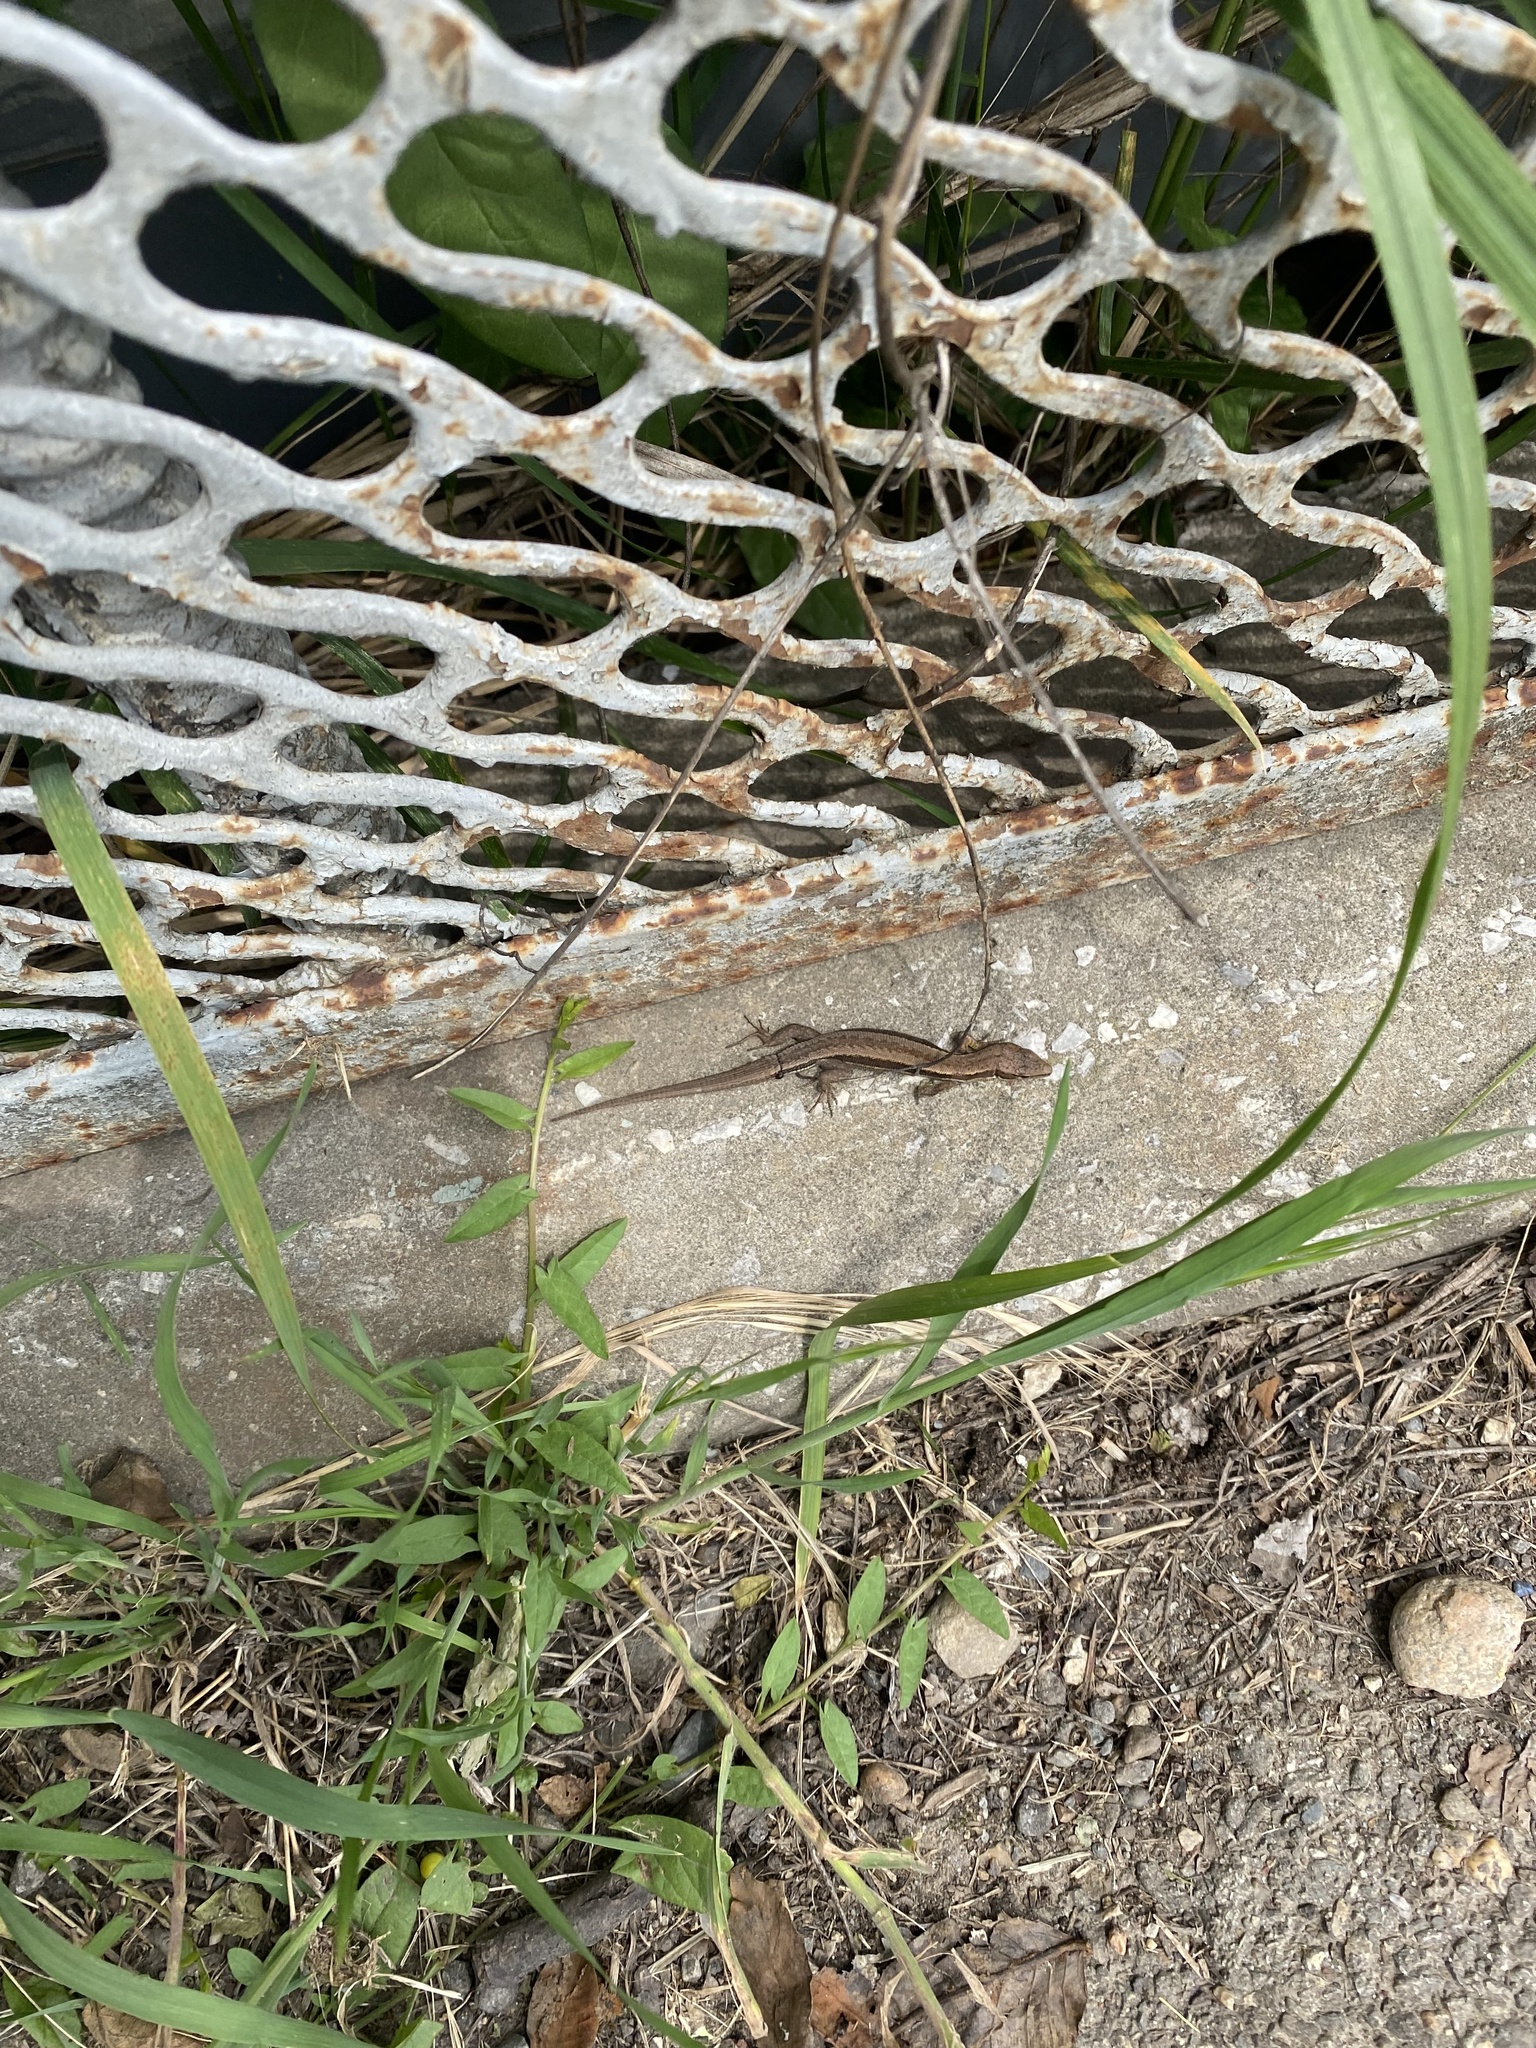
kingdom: Animalia
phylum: Chordata
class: Squamata
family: Lacertidae
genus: Darevskia
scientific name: Darevskia praticola
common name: Meadow lizard
